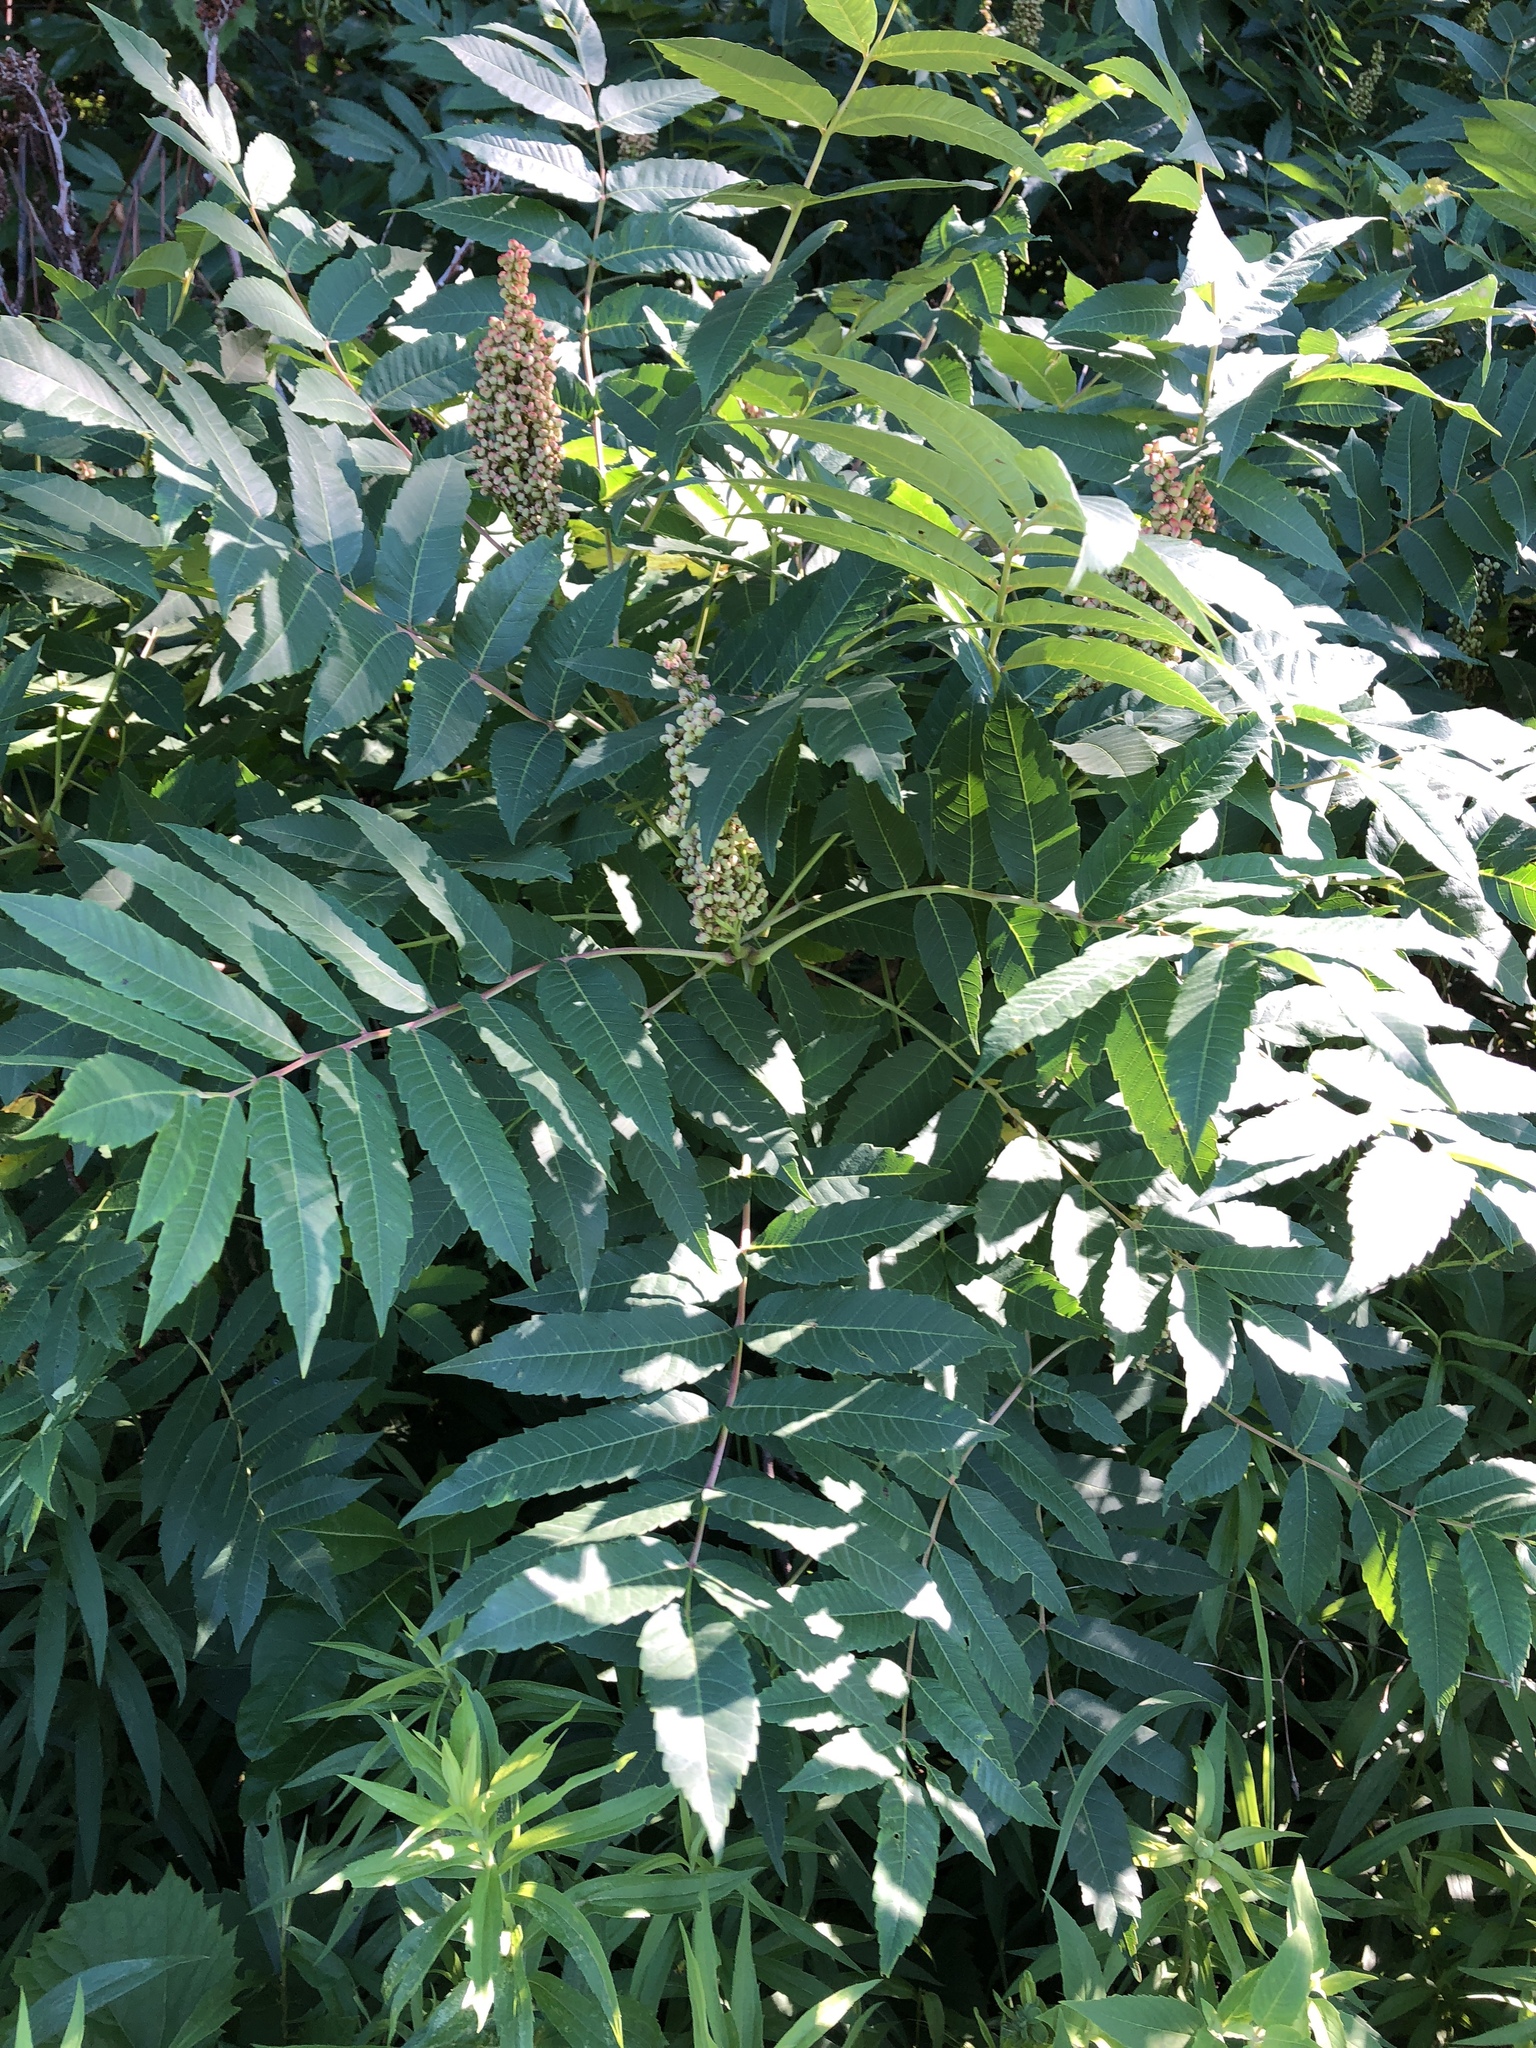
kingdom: Plantae
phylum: Tracheophyta
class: Magnoliopsida
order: Sapindales
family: Anacardiaceae
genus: Rhus
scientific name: Rhus glabra
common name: Scarlet sumac
